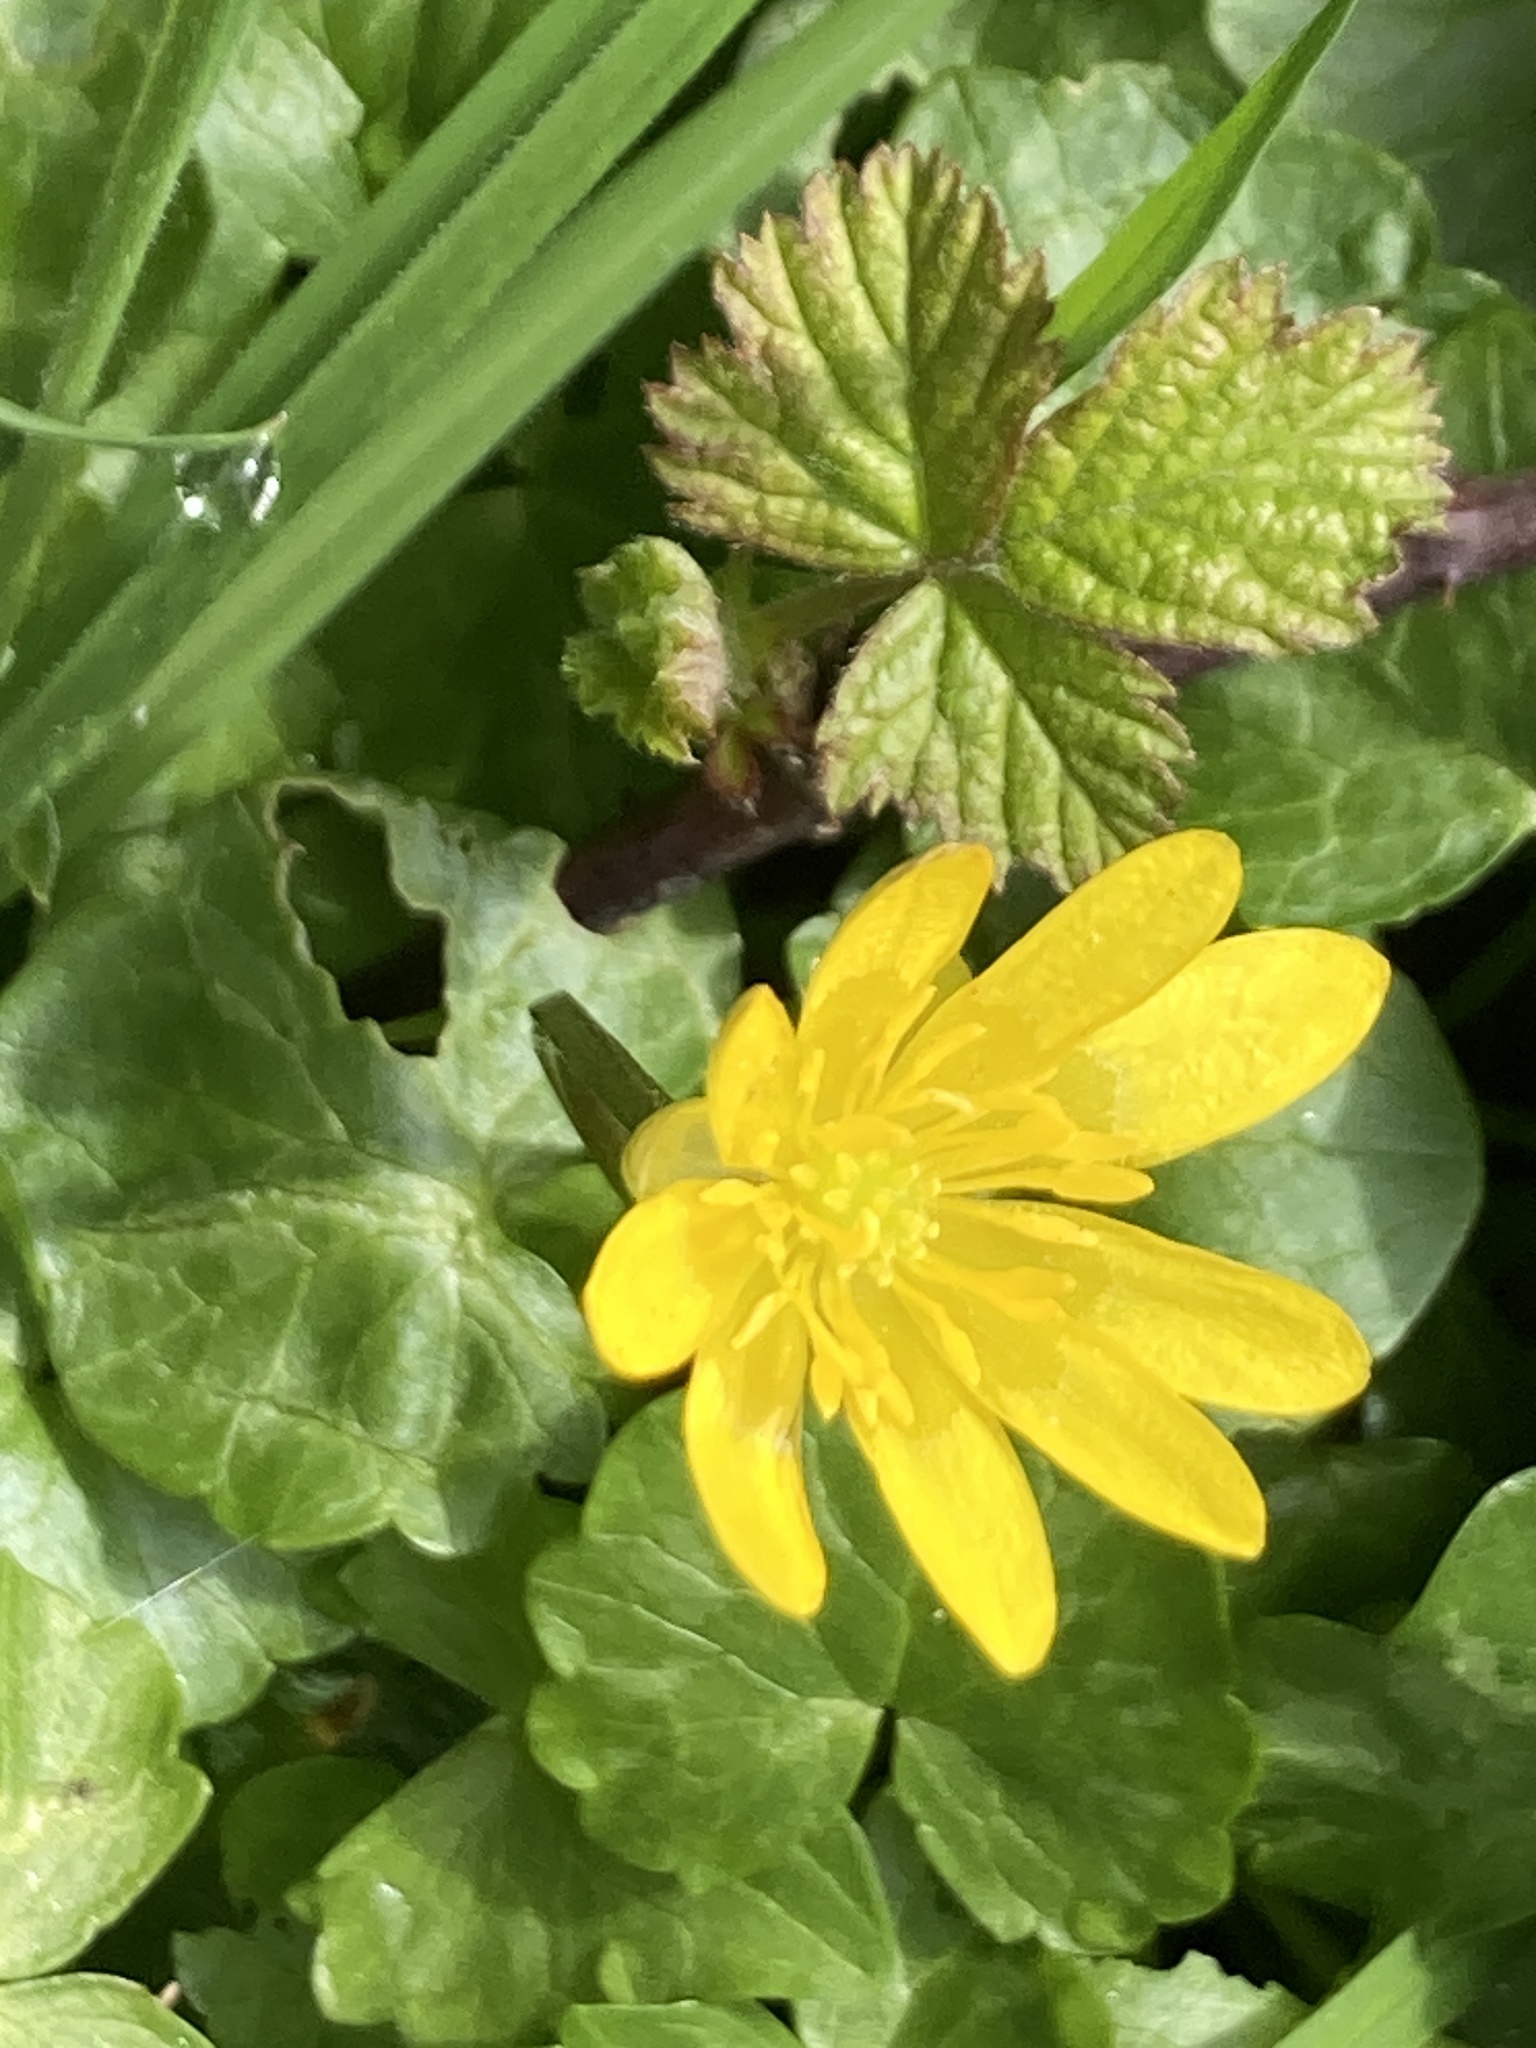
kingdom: Plantae
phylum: Tracheophyta
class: Magnoliopsida
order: Ranunculales
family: Ranunculaceae
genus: Ficaria
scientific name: Ficaria verna
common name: Lesser celandine
